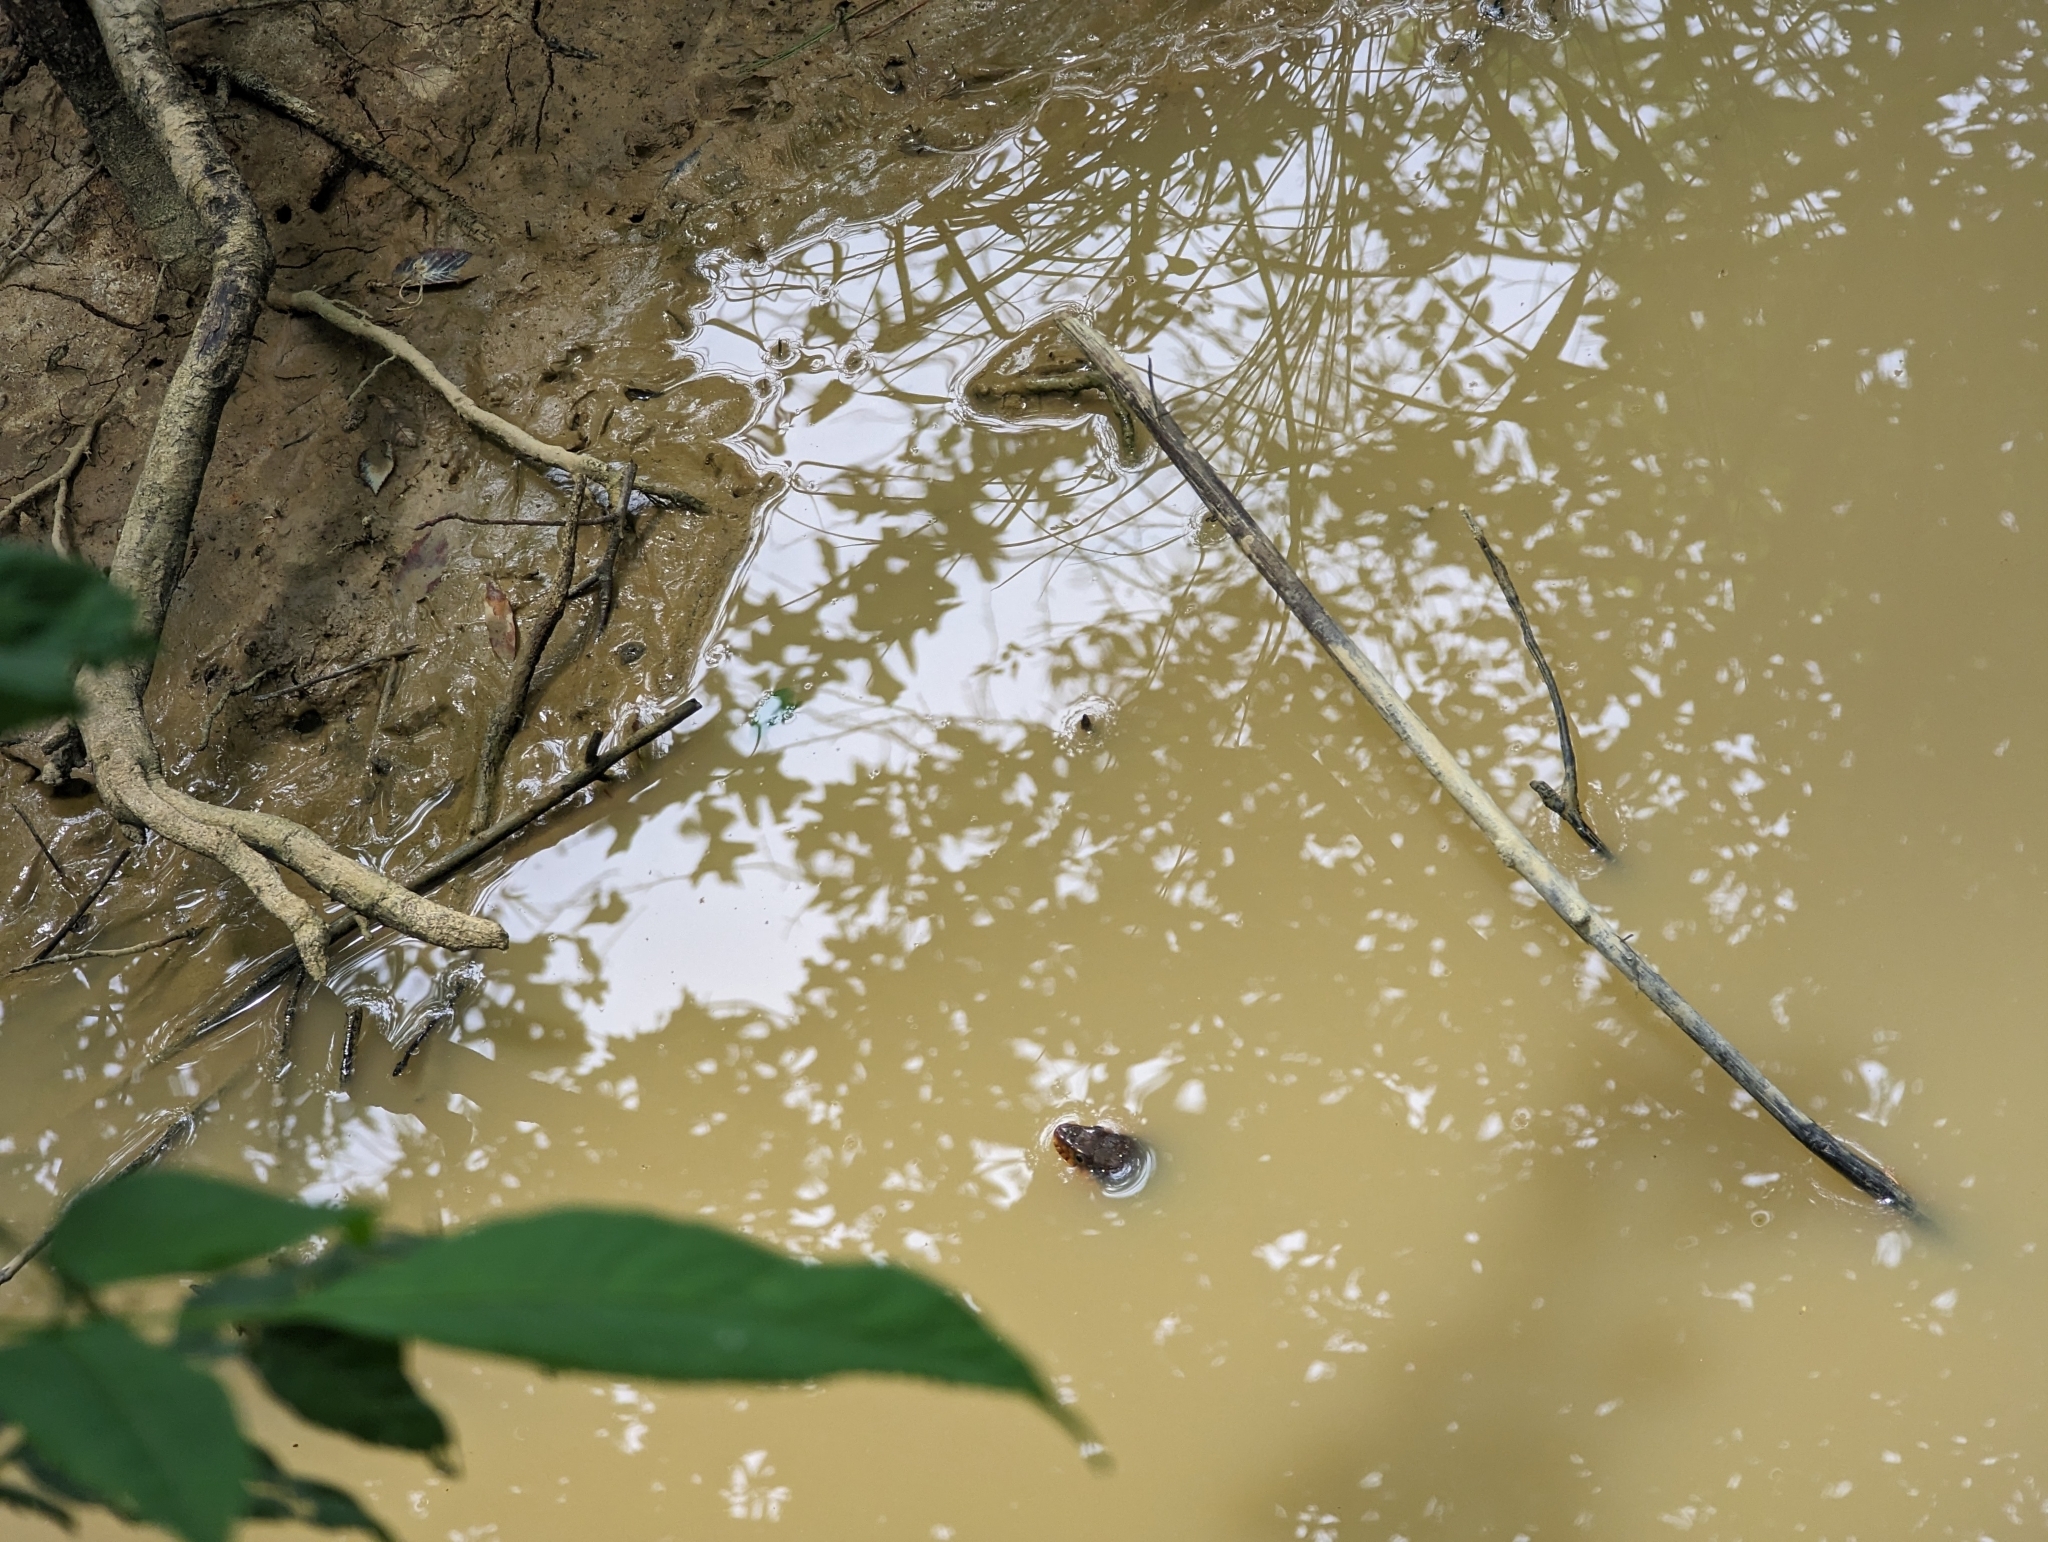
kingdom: Animalia
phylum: Chordata
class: Squamata
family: Colubridae
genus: Nerodia
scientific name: Nerodia erythrogaster
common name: Plainbelly water snake
